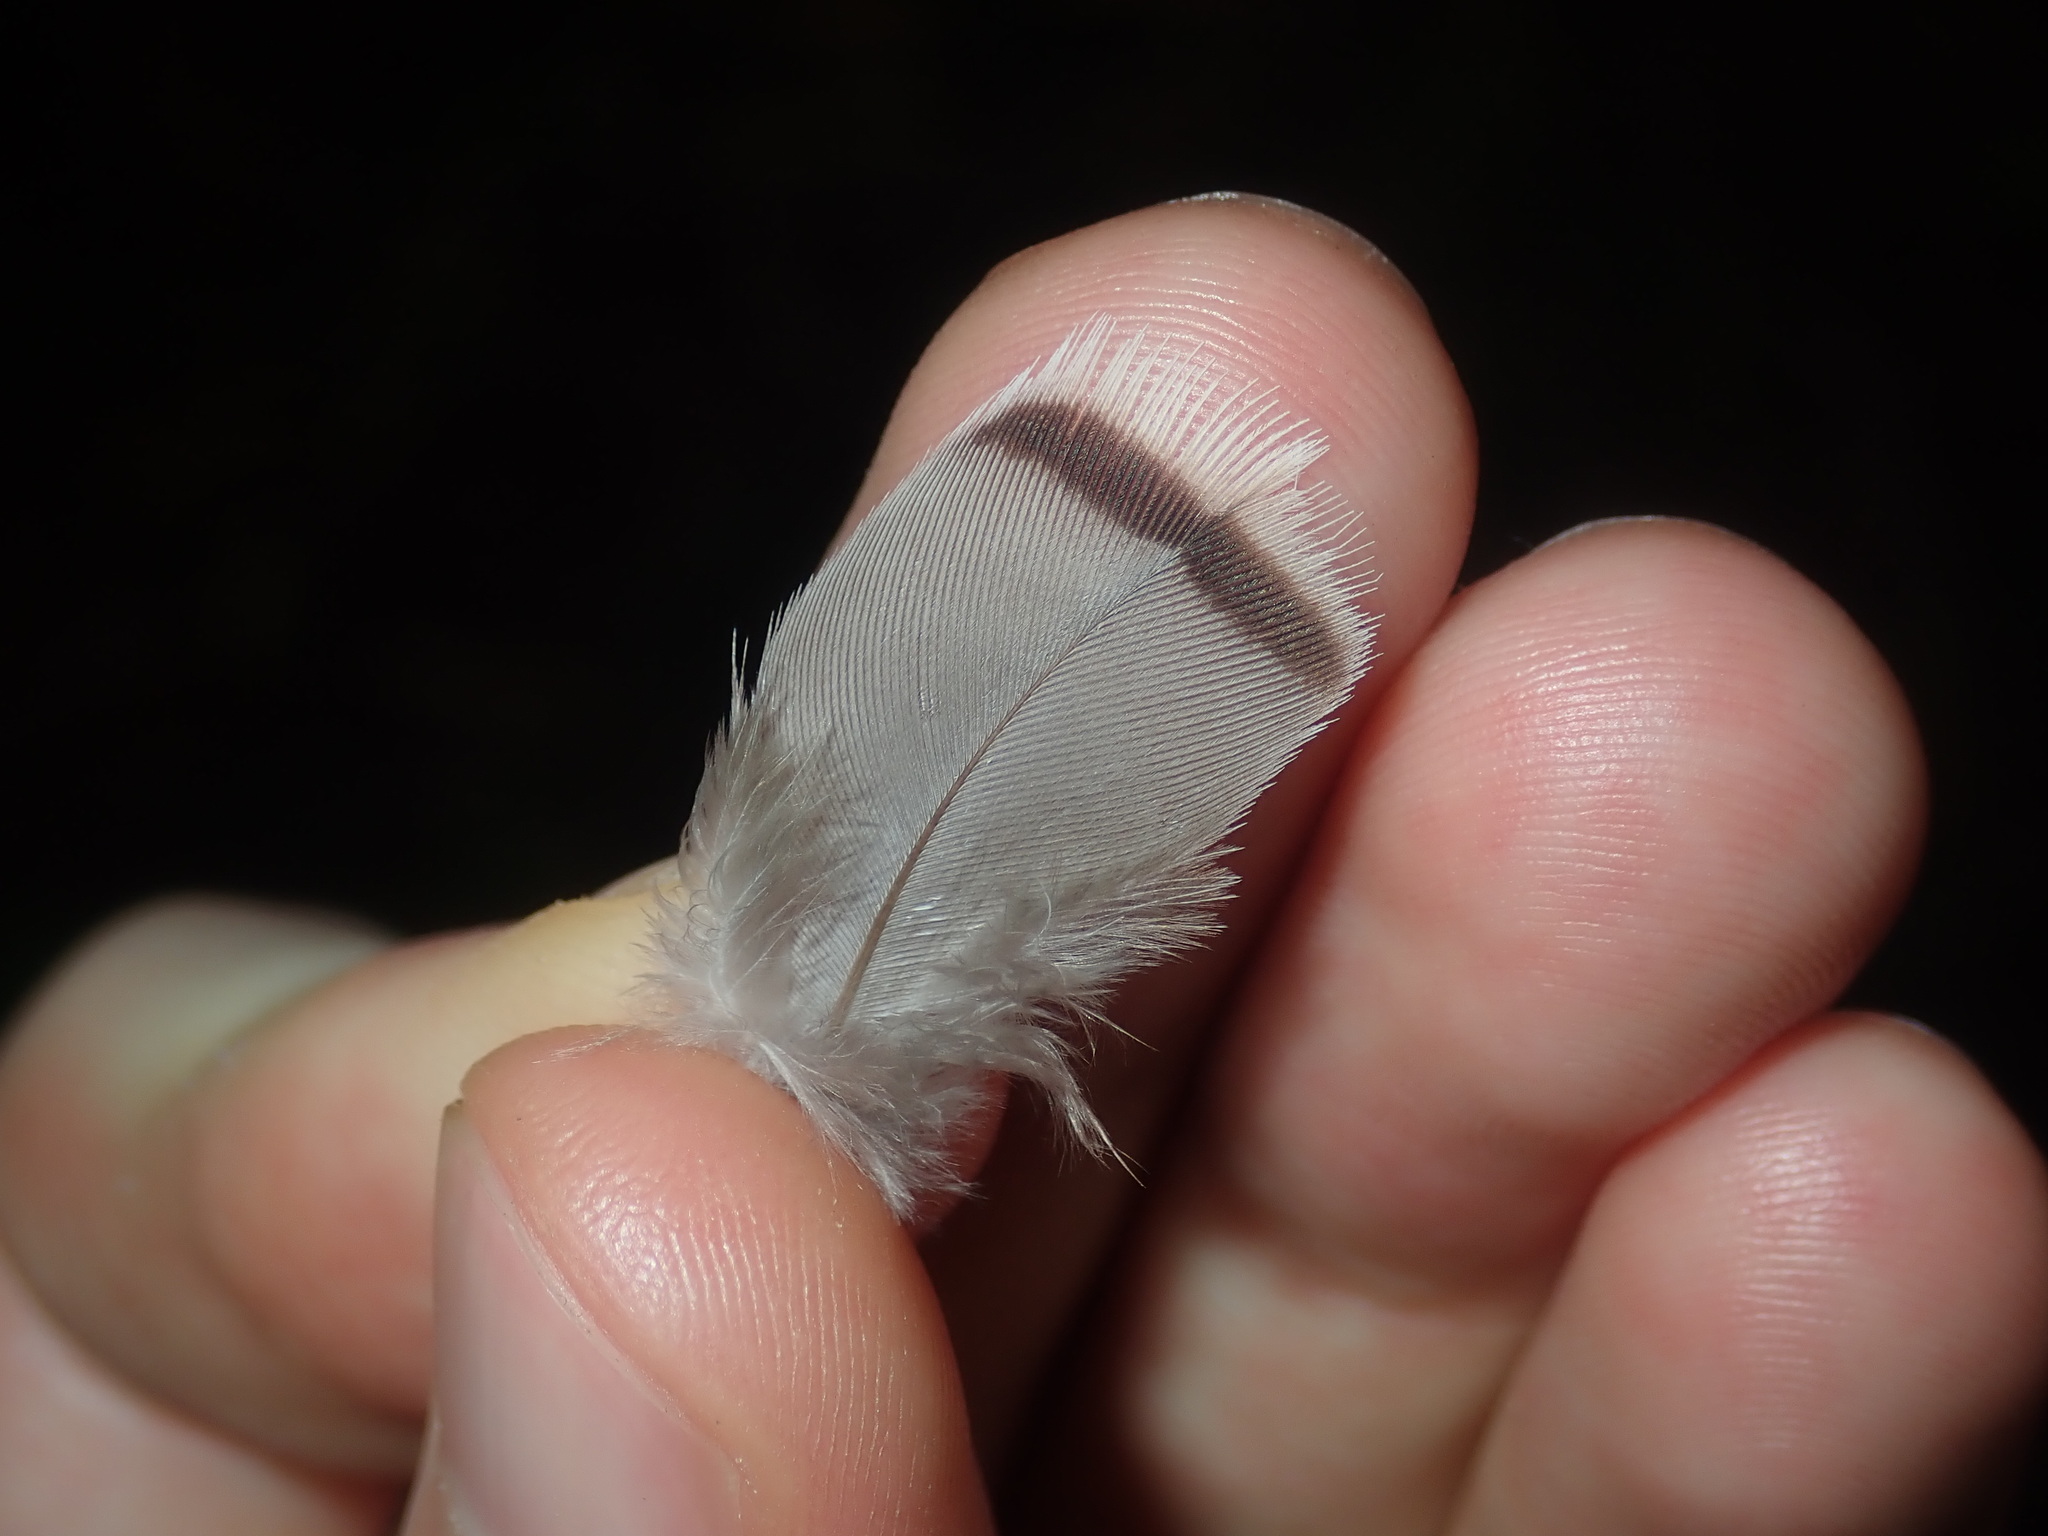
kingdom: Animalia
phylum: Chordata
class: Aves
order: Columbiformes
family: Columbidae
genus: Ocyphaps
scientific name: Ocyphaps lophotes
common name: Crested pigeon
